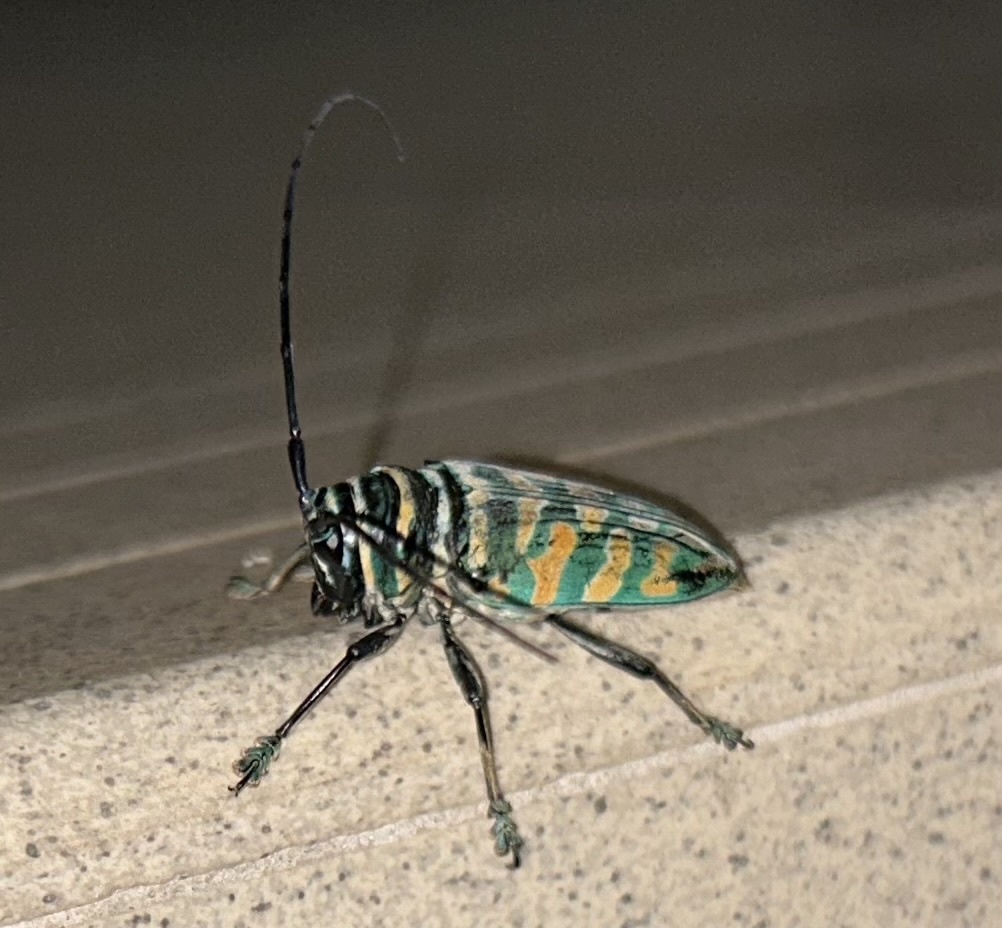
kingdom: Animalia
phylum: Arthropoda
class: Insecta
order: Coleoptera
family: Cerambycidae
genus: Sternotomis
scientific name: Sternotomis itzingeri
